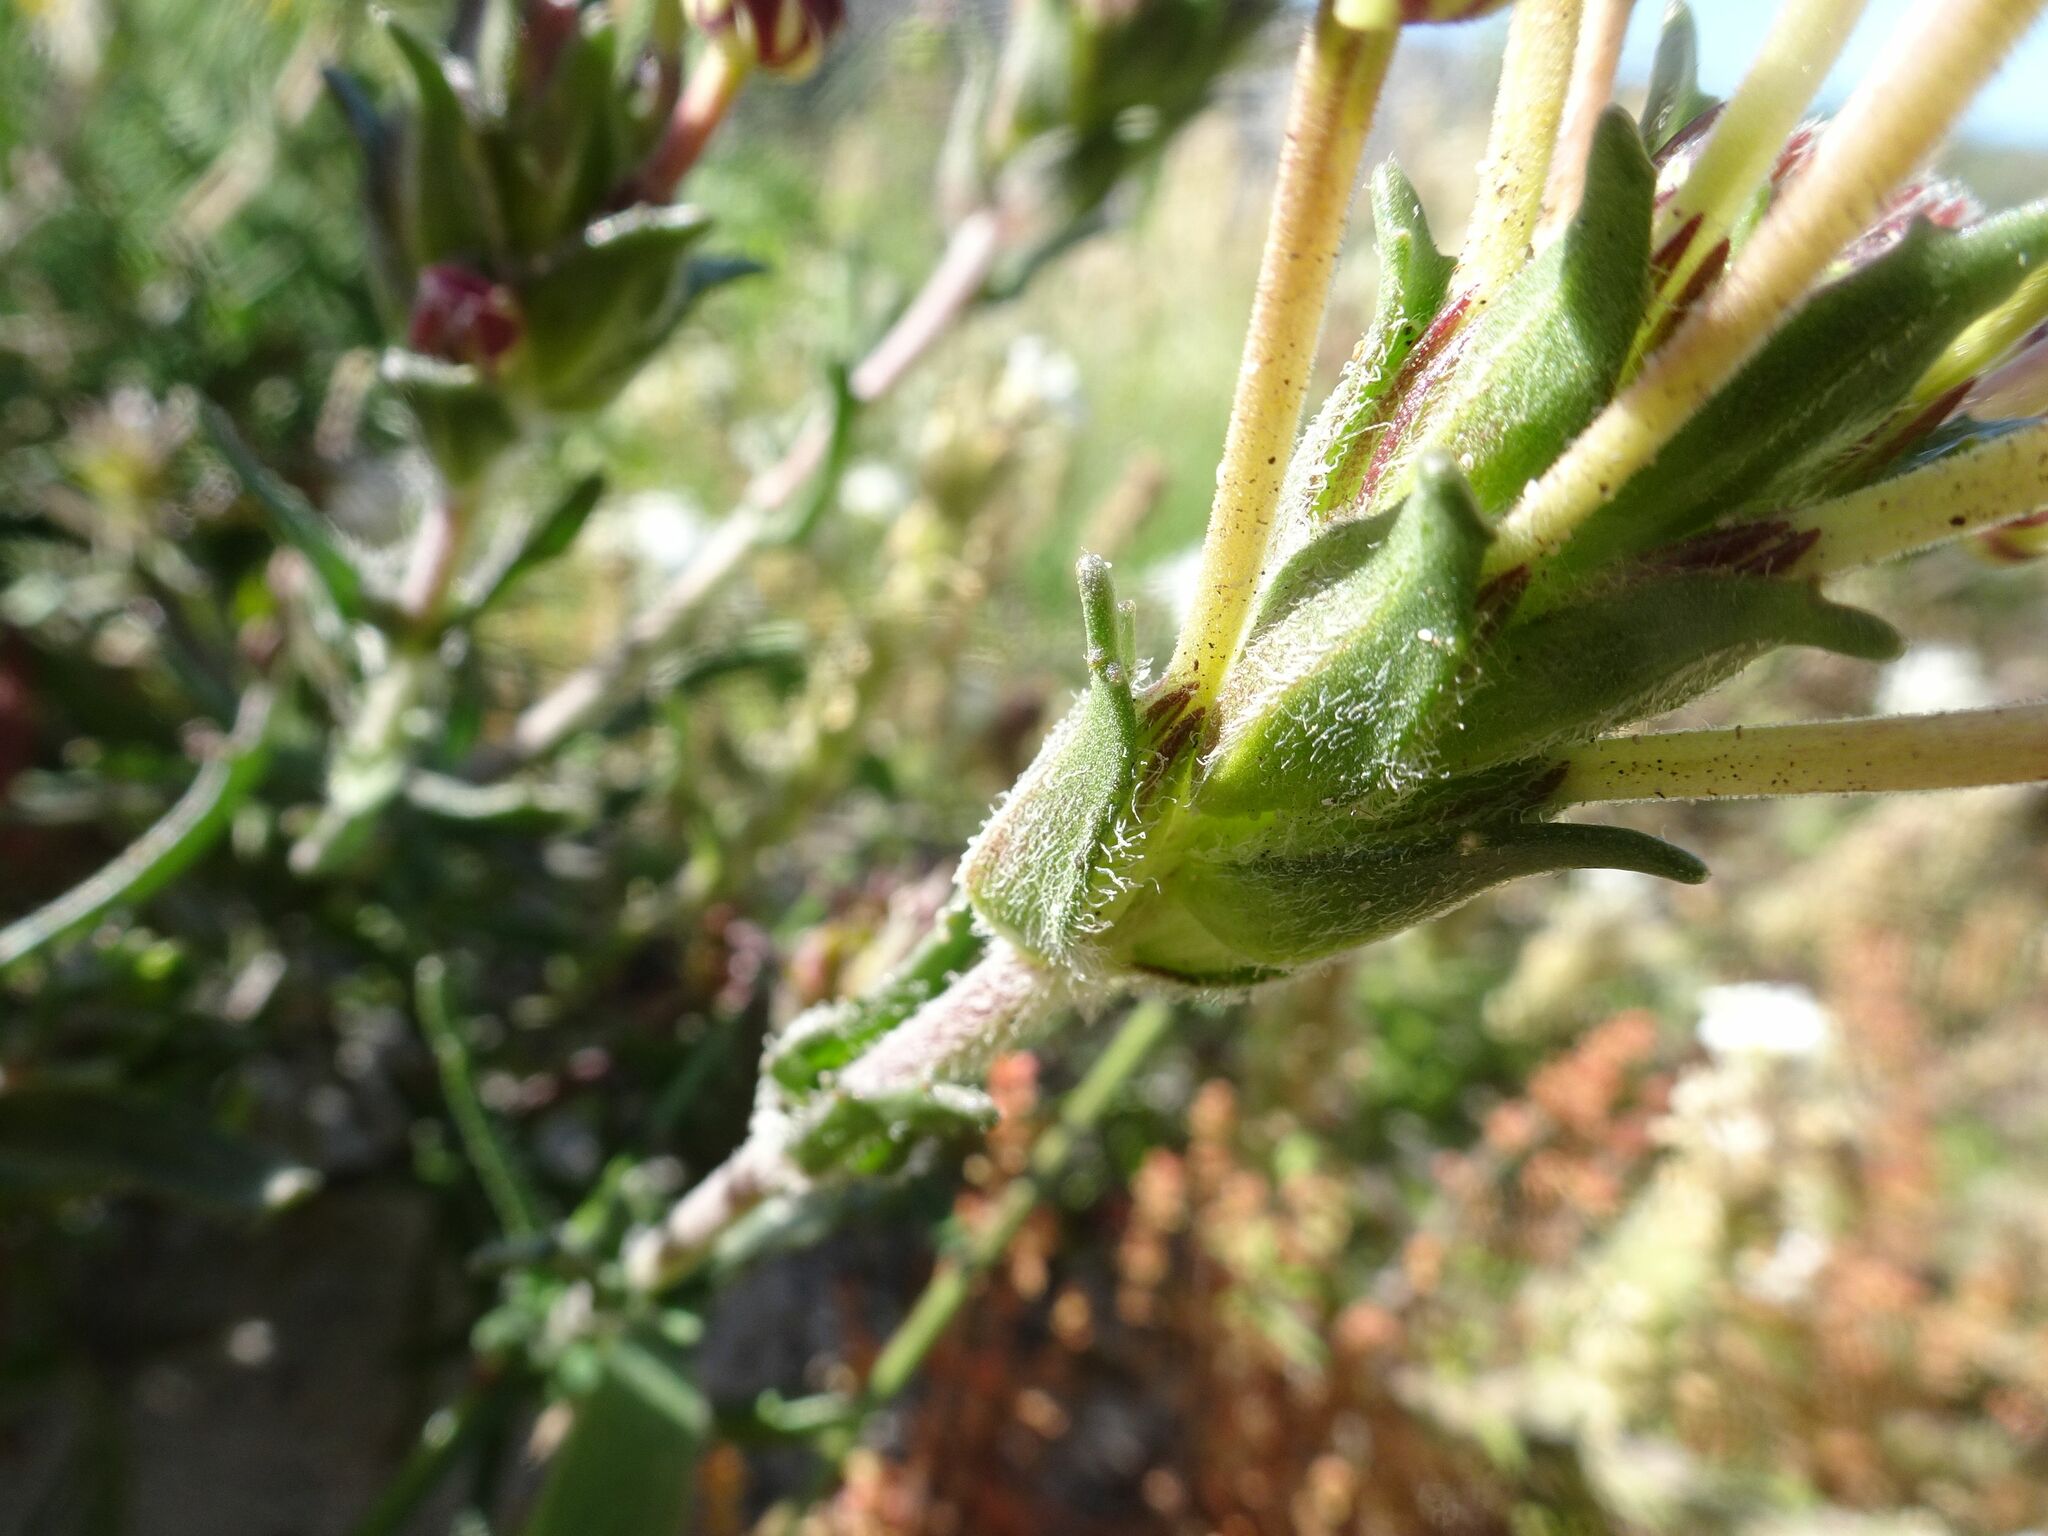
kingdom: Plantae
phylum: Tracheophyta
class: Magnoliopsida
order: Lamiales
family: Scrophulariaceae
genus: Zaluzianskya
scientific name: Zaluzianskya capensis
